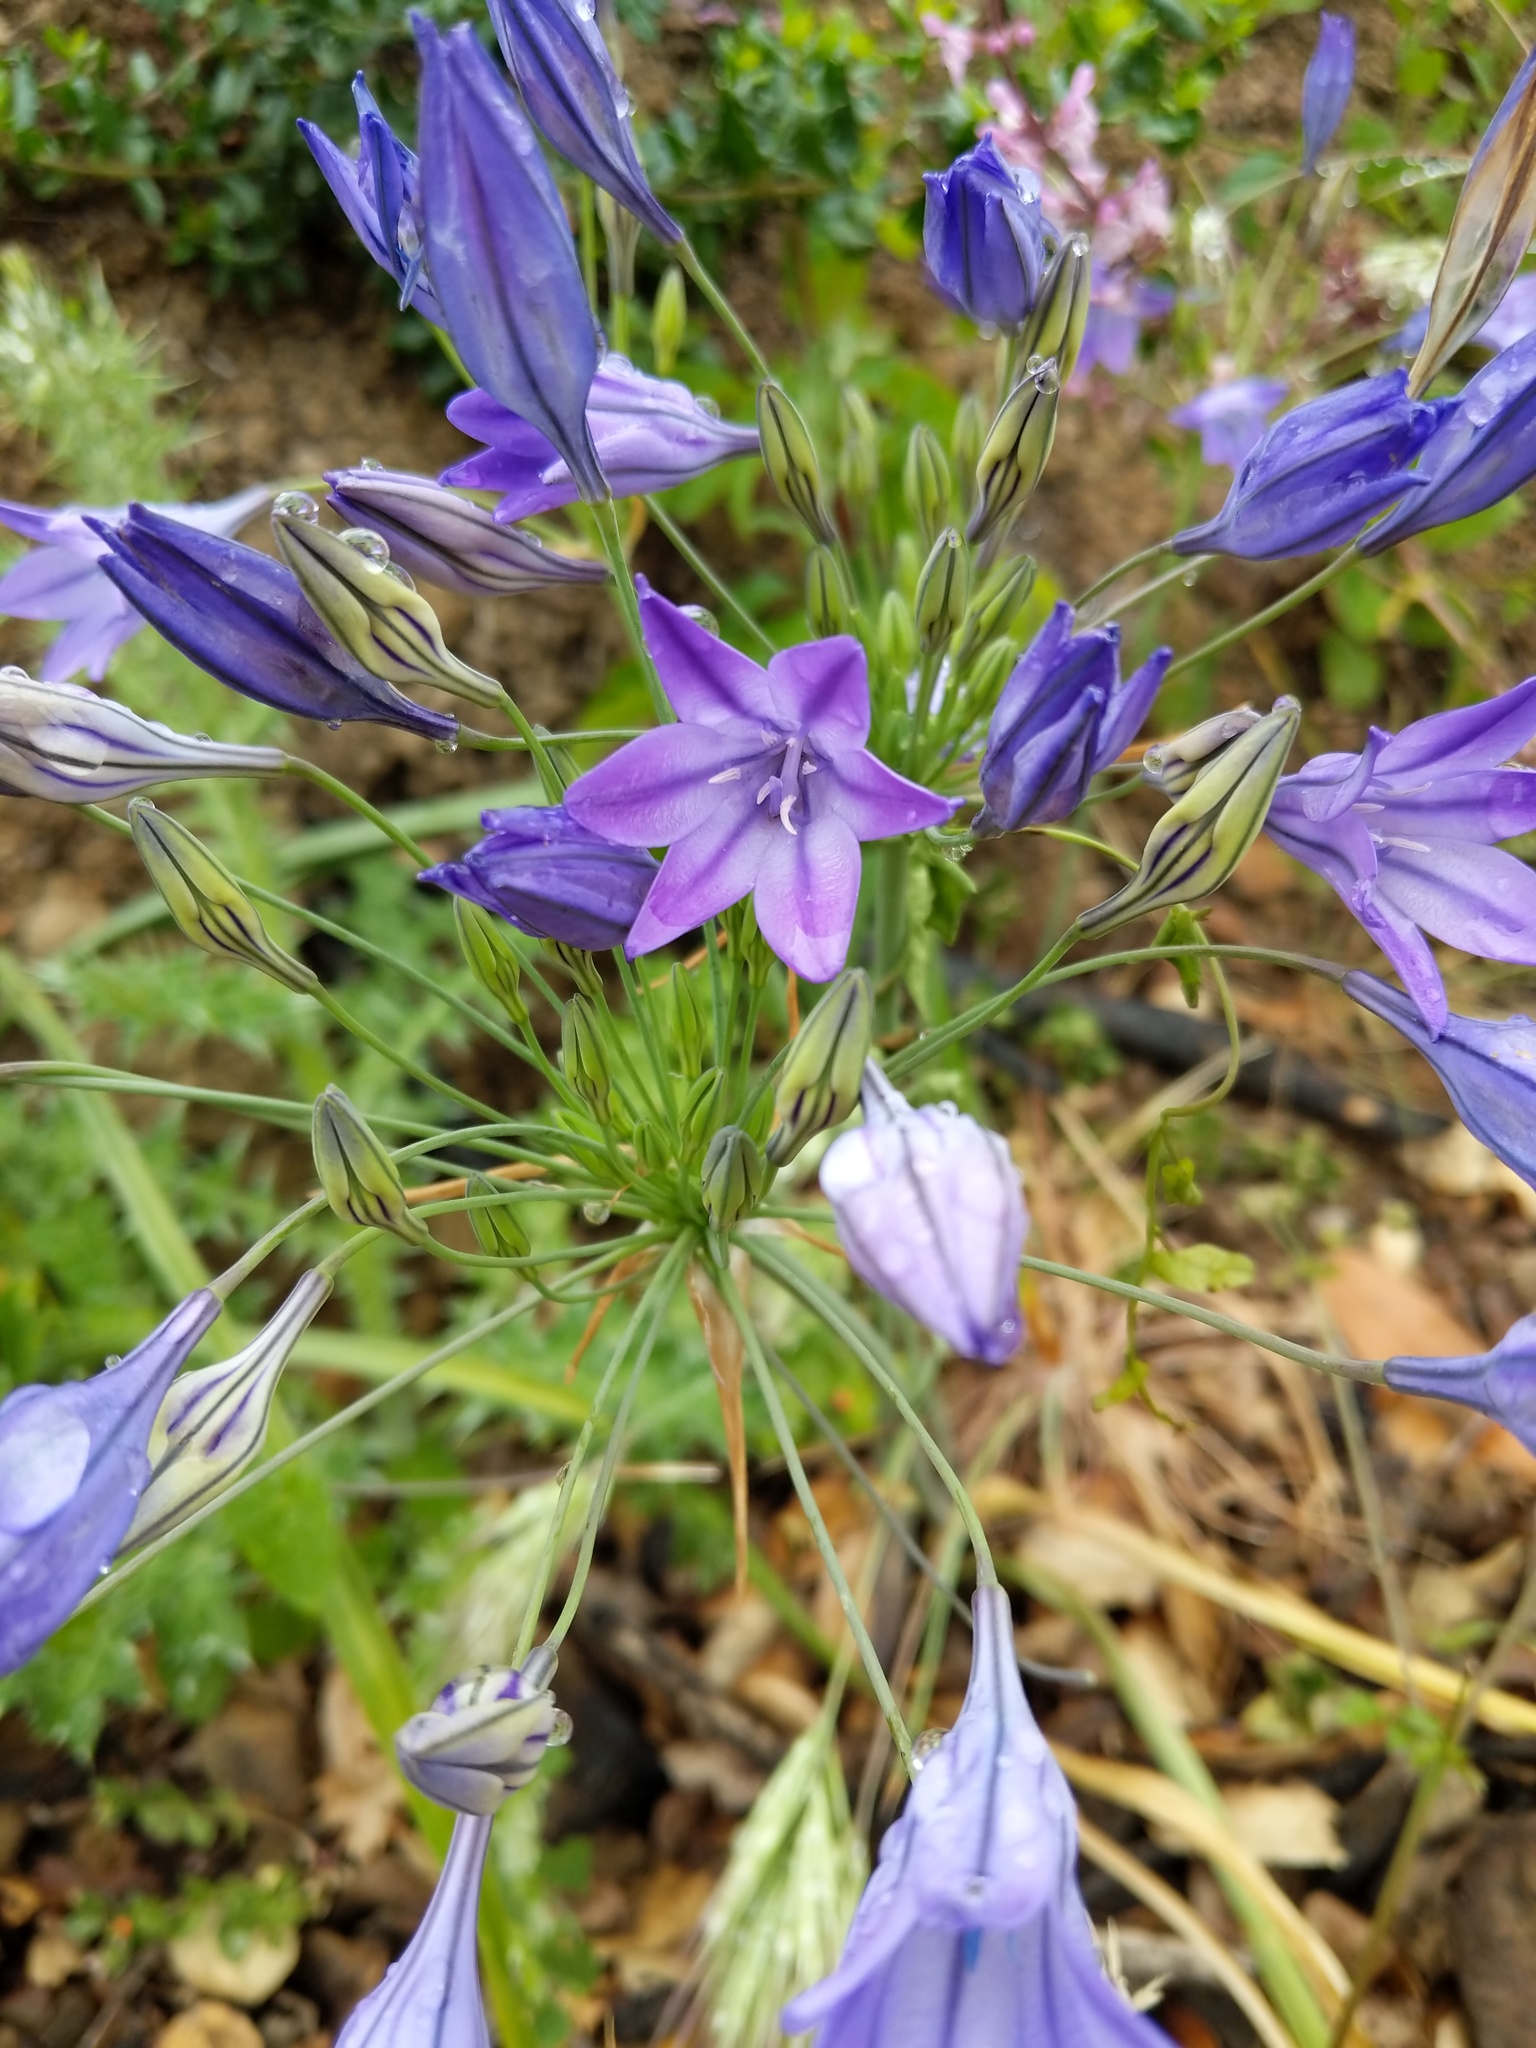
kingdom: Plantae
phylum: Tracheophyta
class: Liliopsida
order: Asparagales
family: Asparagaceae
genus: Triteleia
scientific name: Triteleia laxa
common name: Triplet-lily
